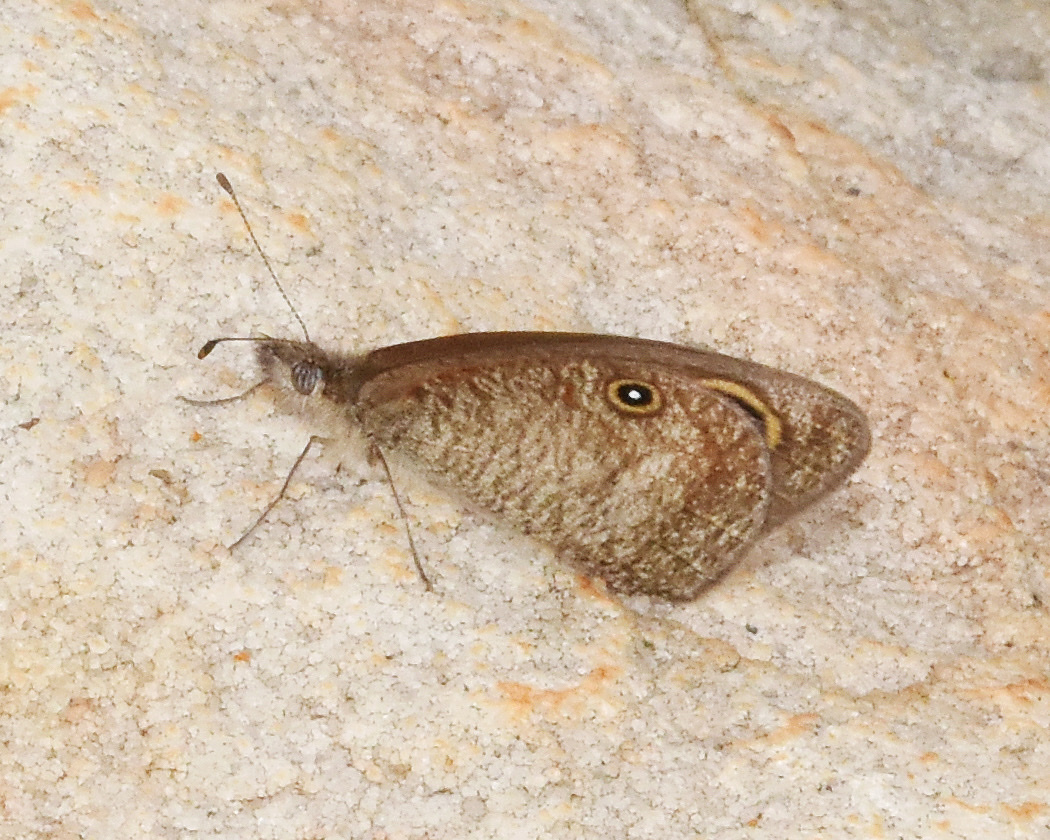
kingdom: Animalia
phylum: Arthropoda
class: Insecta
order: Lepidoptera
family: Nymphalidae
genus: Ypthima
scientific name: Ypthima asterope
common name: African ringlet
